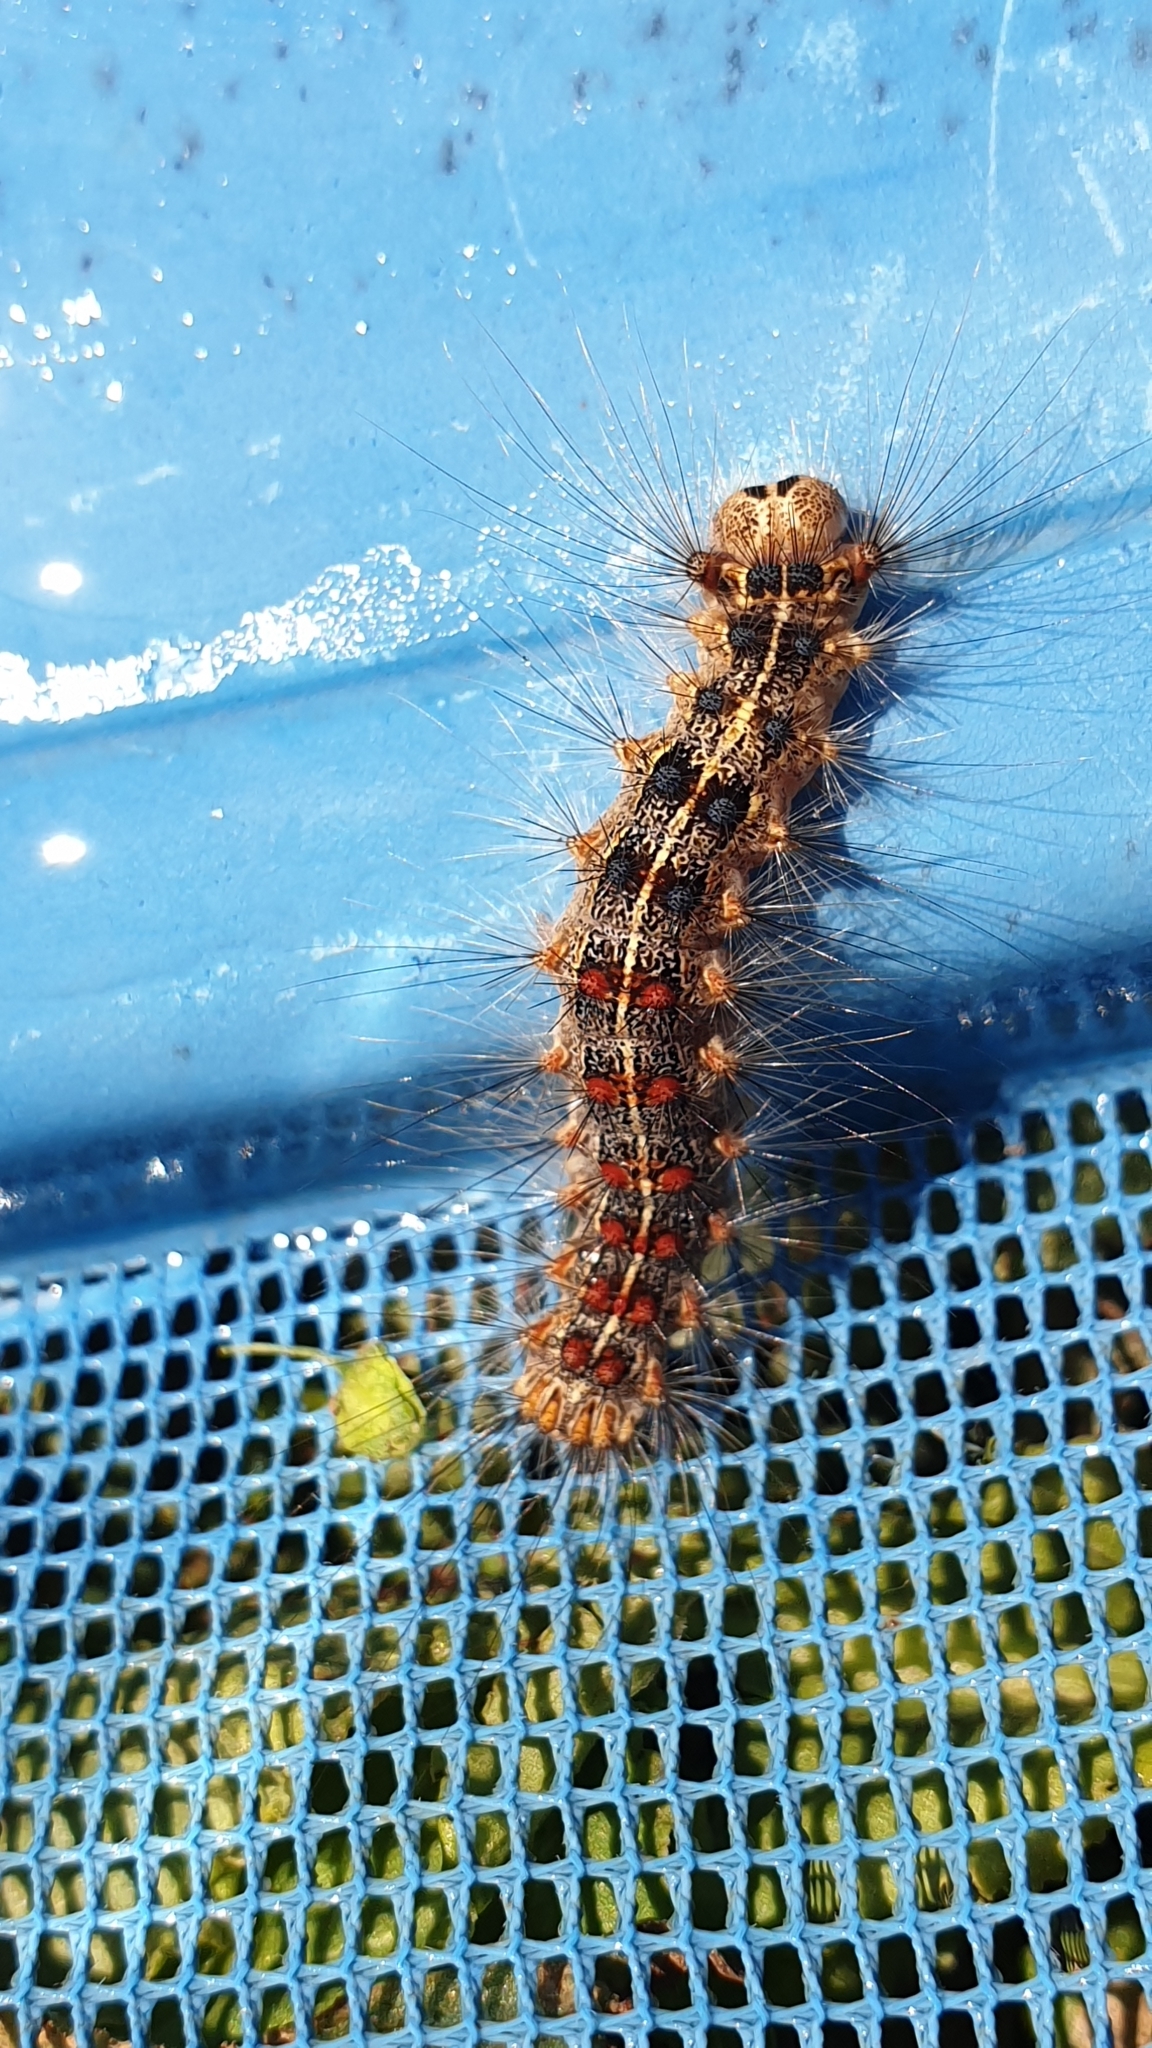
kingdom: Animalia
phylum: Arthropoda
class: Insecta
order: Lepidoptera
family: Erebidae
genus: Lymantria
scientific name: Lymantria dispar
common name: Gypsy moth
